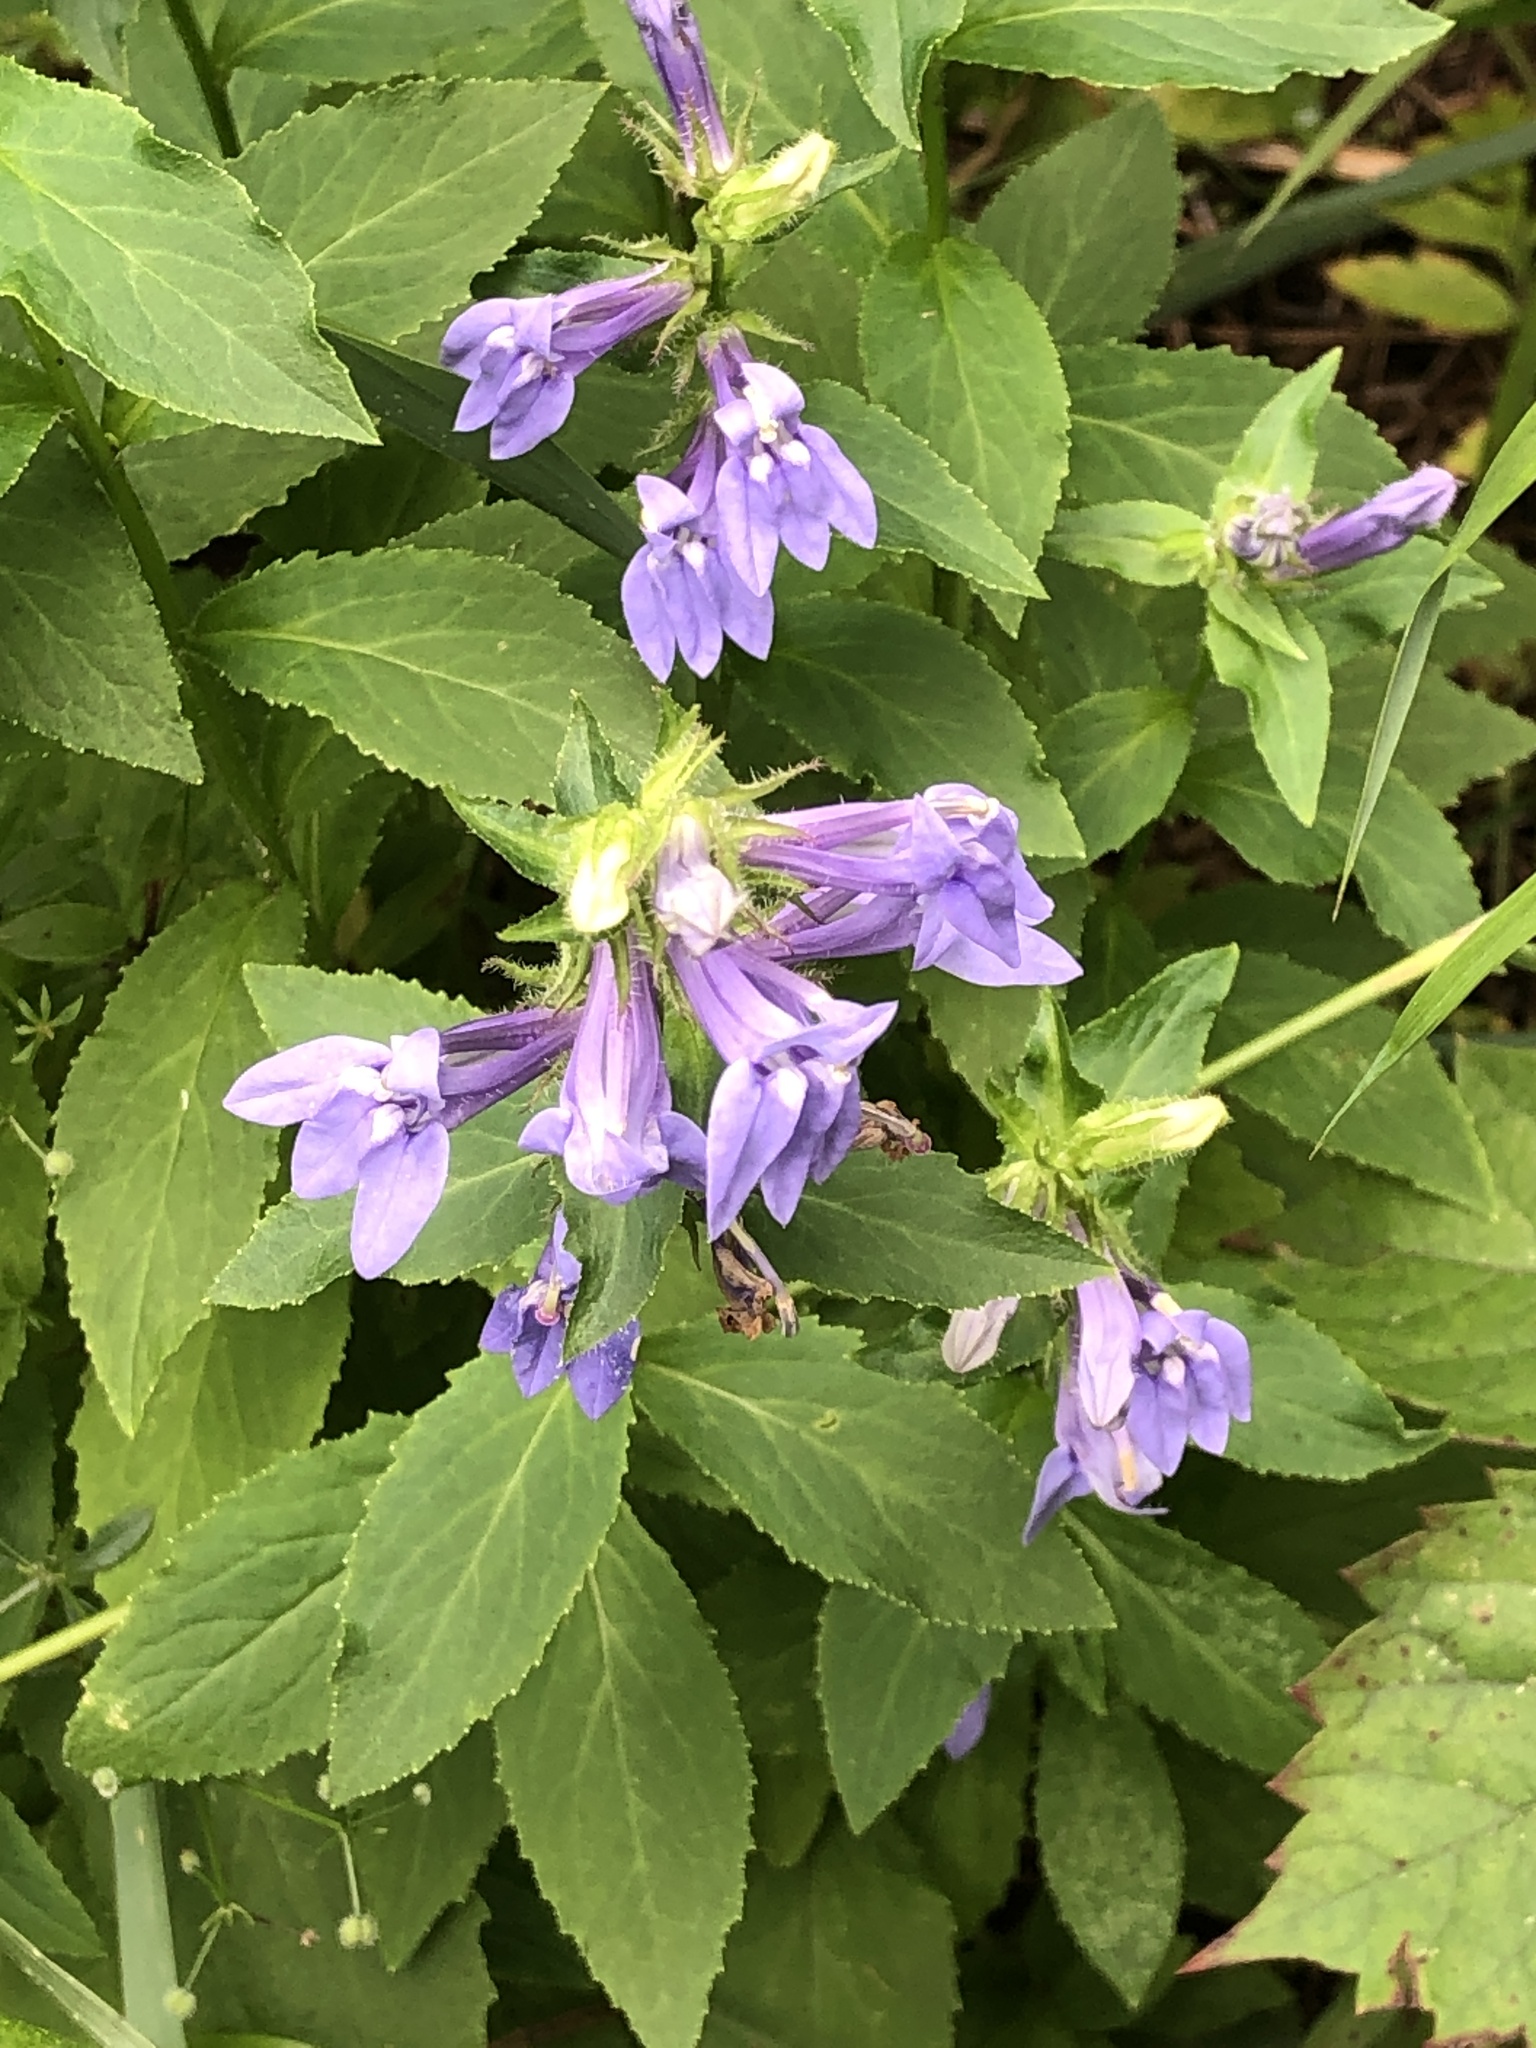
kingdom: Plantae
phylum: Tracheophyta
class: Magnoliopsida
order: Asterales
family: Campanulaceae
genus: Lobelia
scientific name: Lobelia siphilitica
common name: Great lobelia
